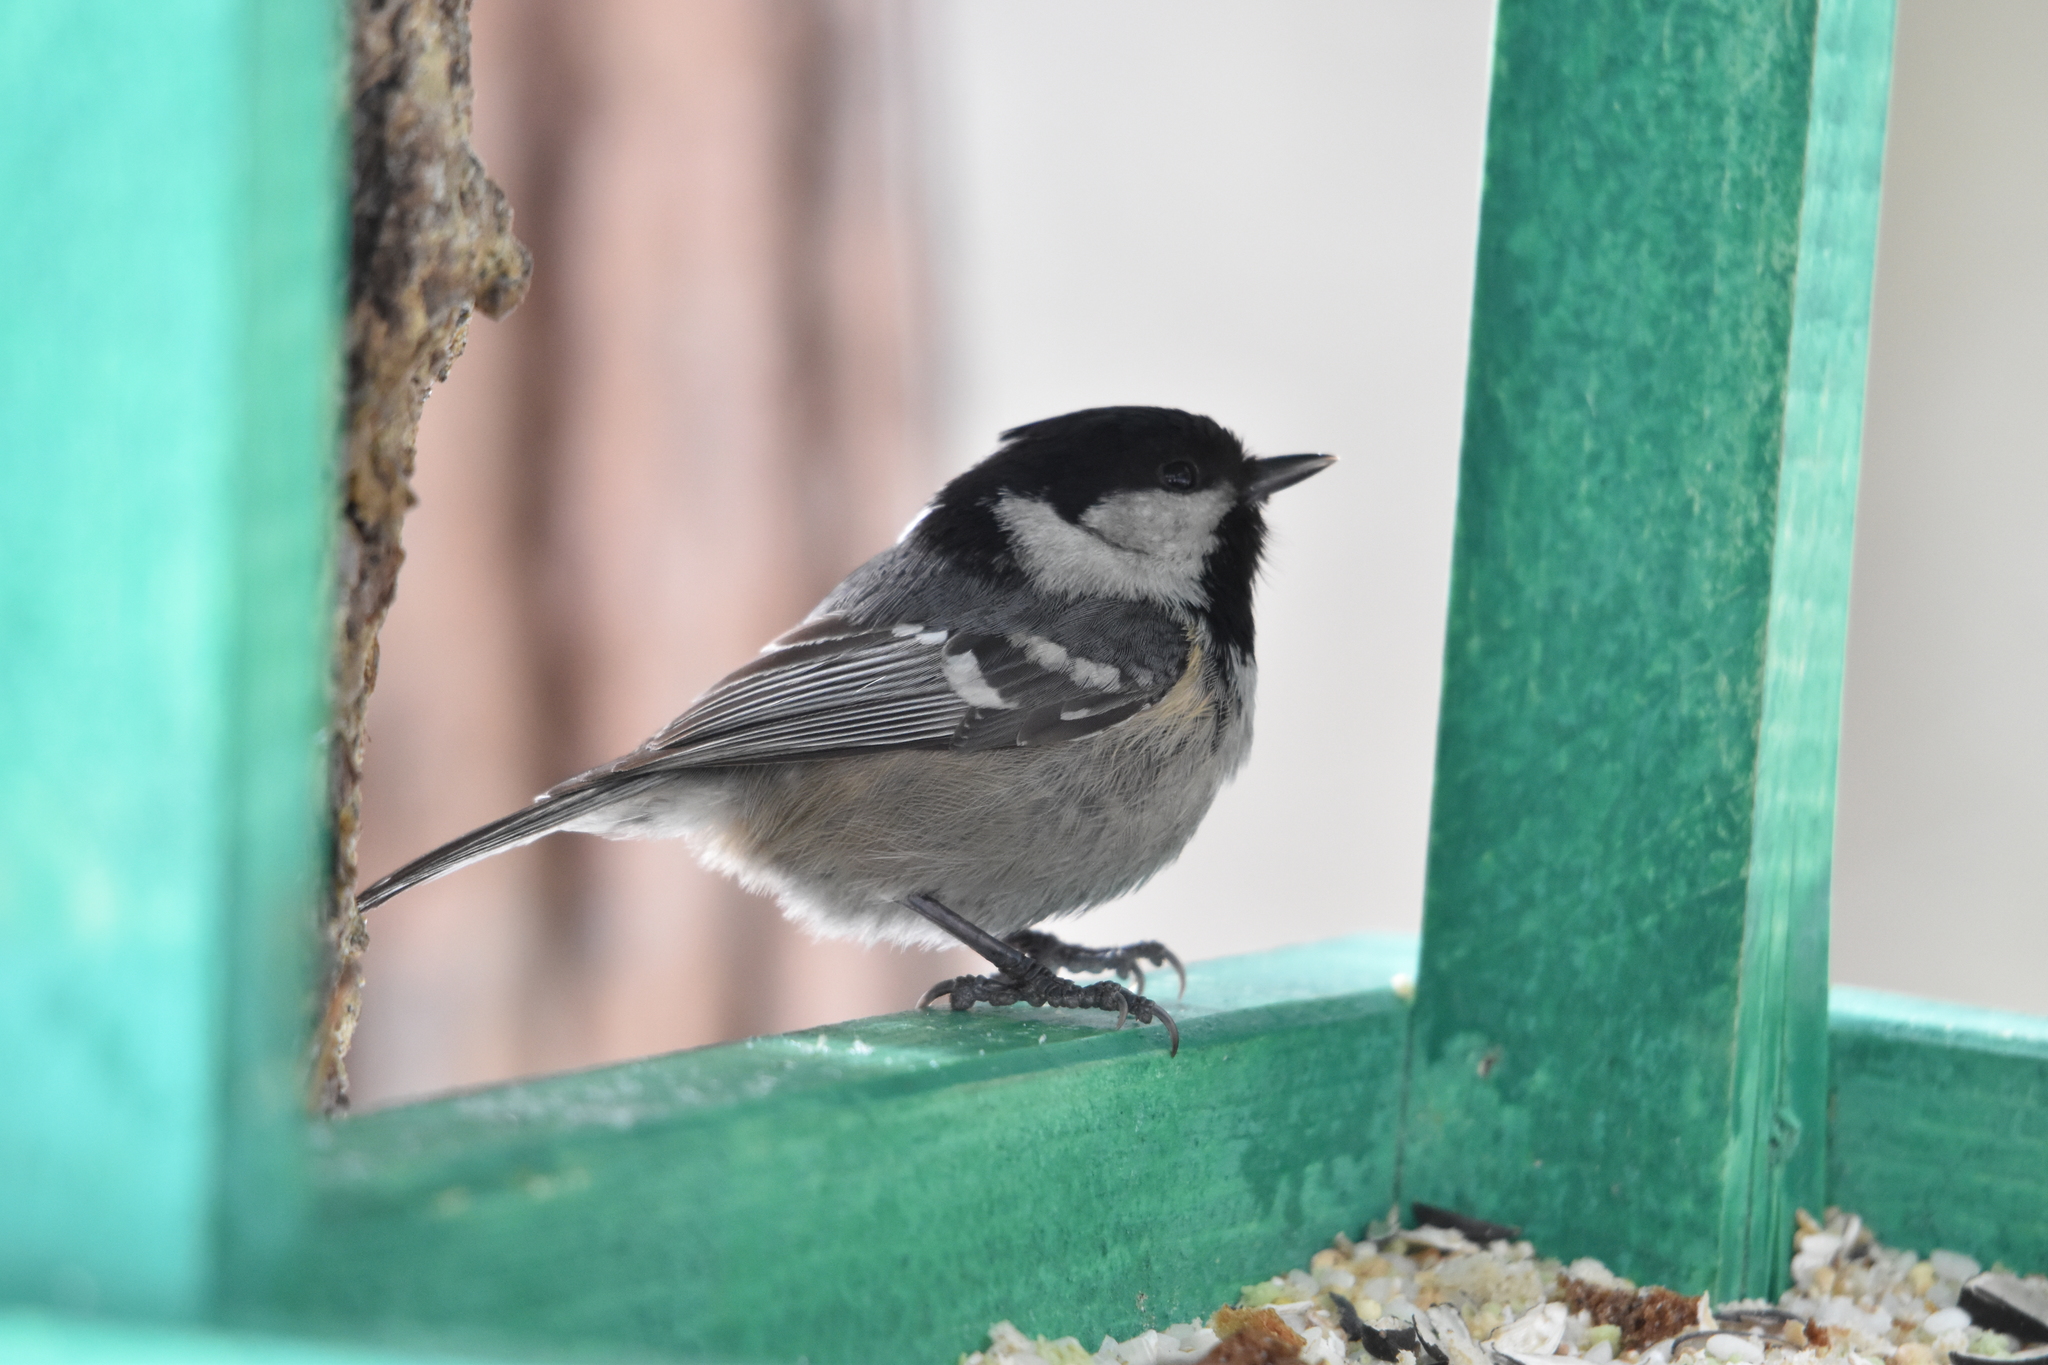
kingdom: Animalia
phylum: Chordata
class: Aves
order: Passeriformes
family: Paridae
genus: Periparus
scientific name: Periparus ater
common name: Coal tit
